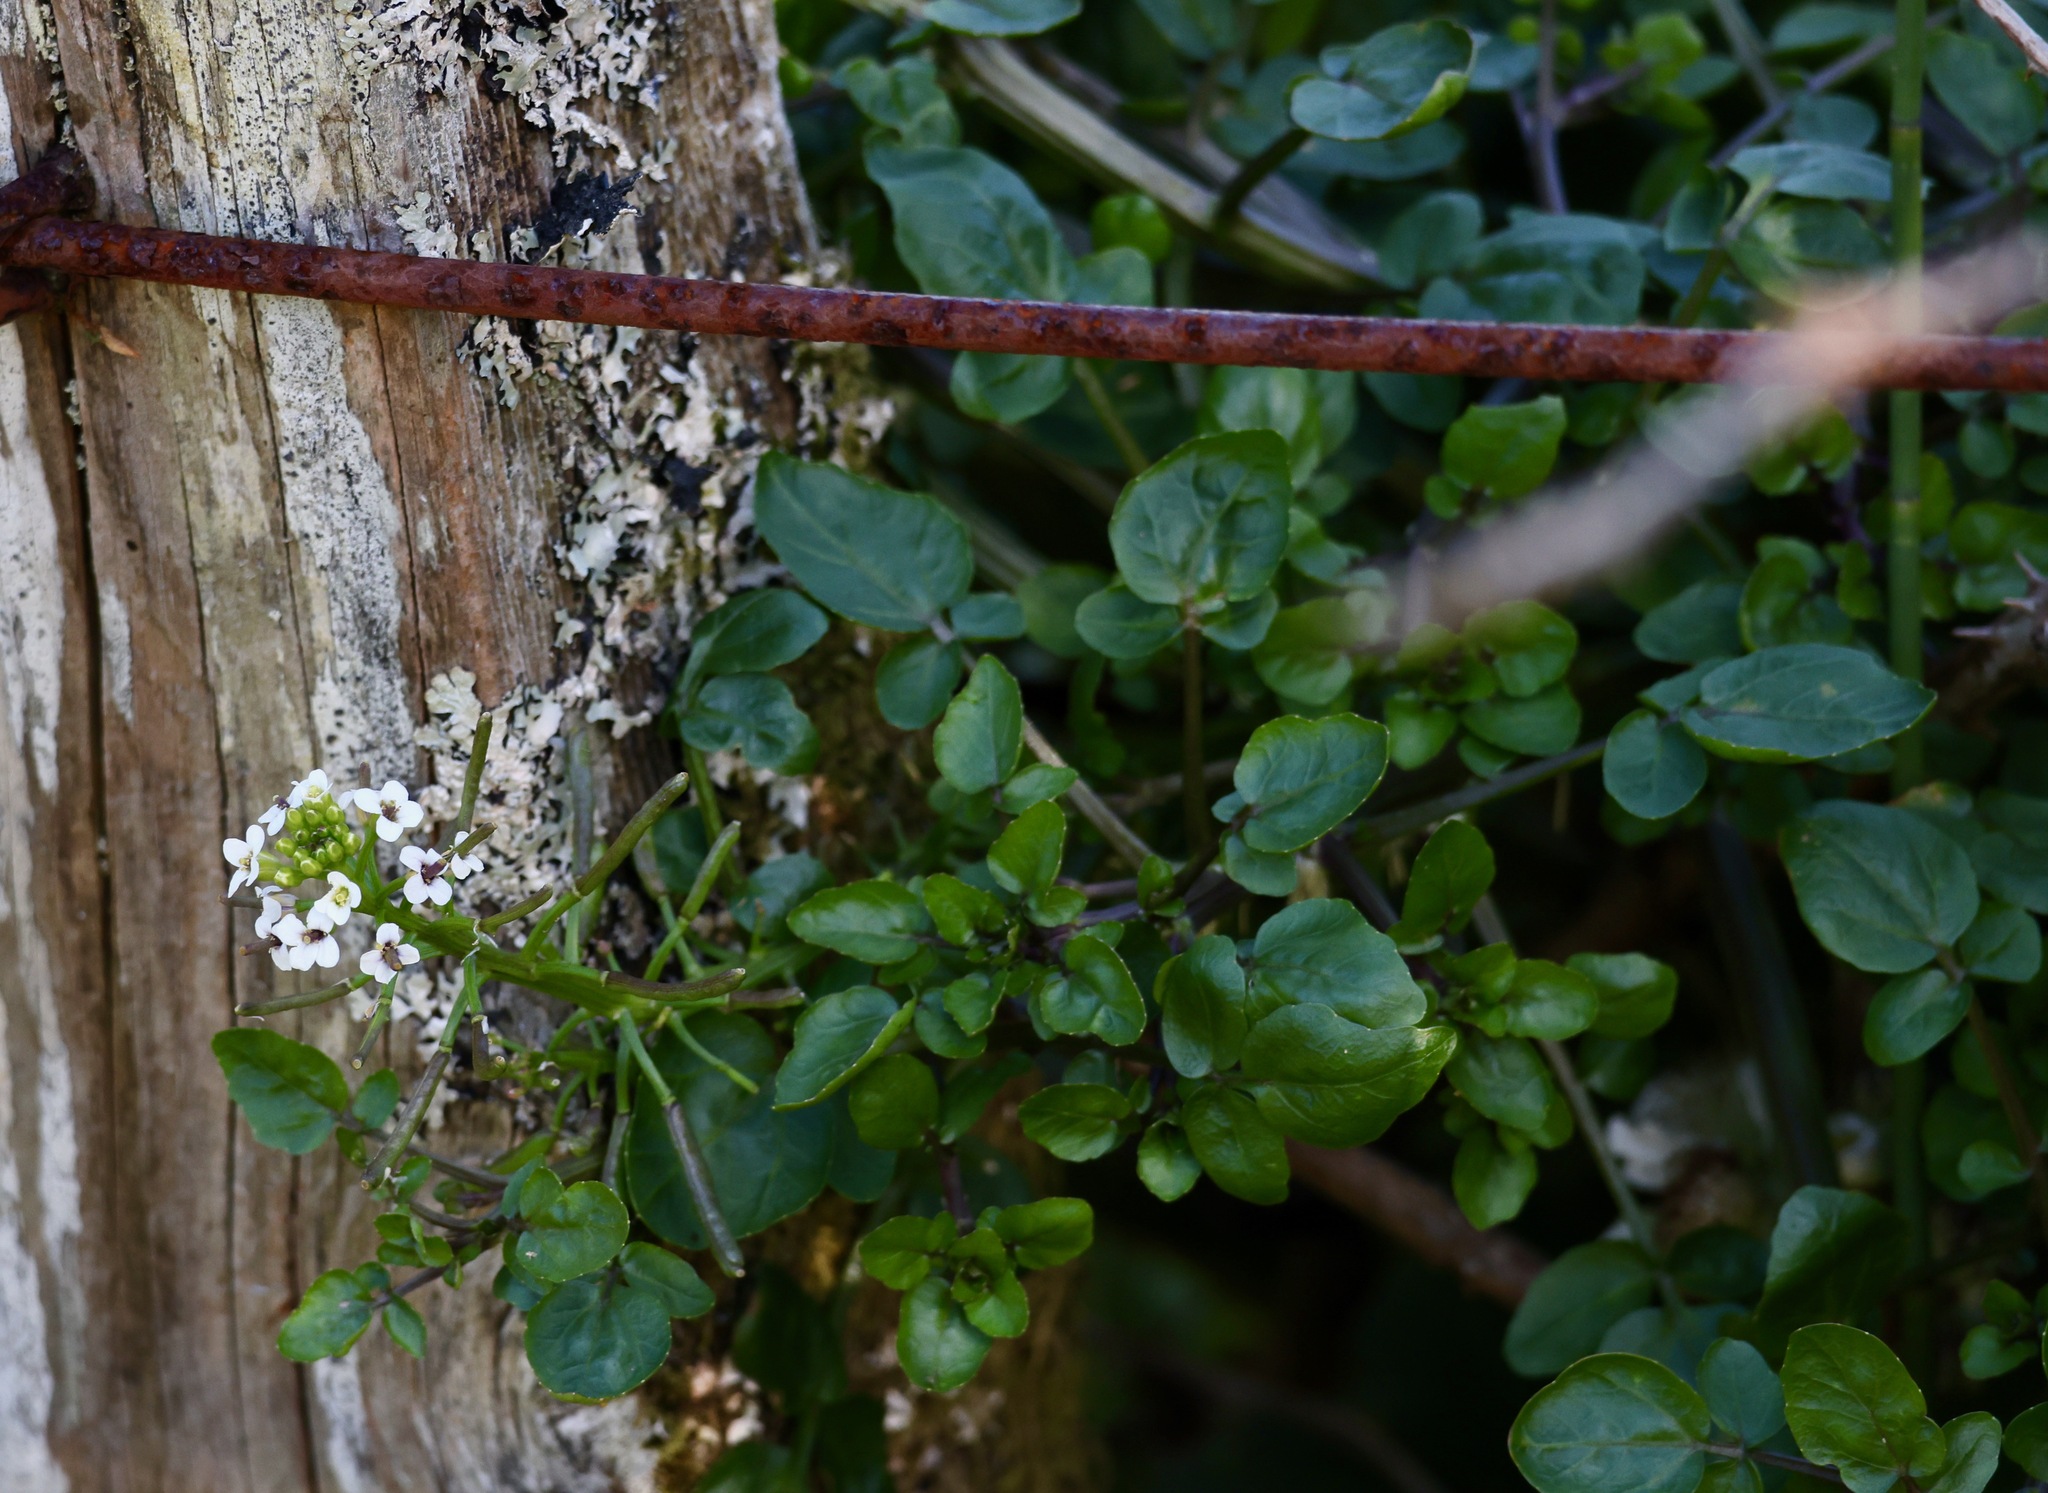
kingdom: Plantae
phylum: Tracheophyta
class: Magnoliopsida
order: Brassicales
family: Brassicaceae
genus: Nasturtium
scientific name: Nasturtium officinale
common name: Watercress
